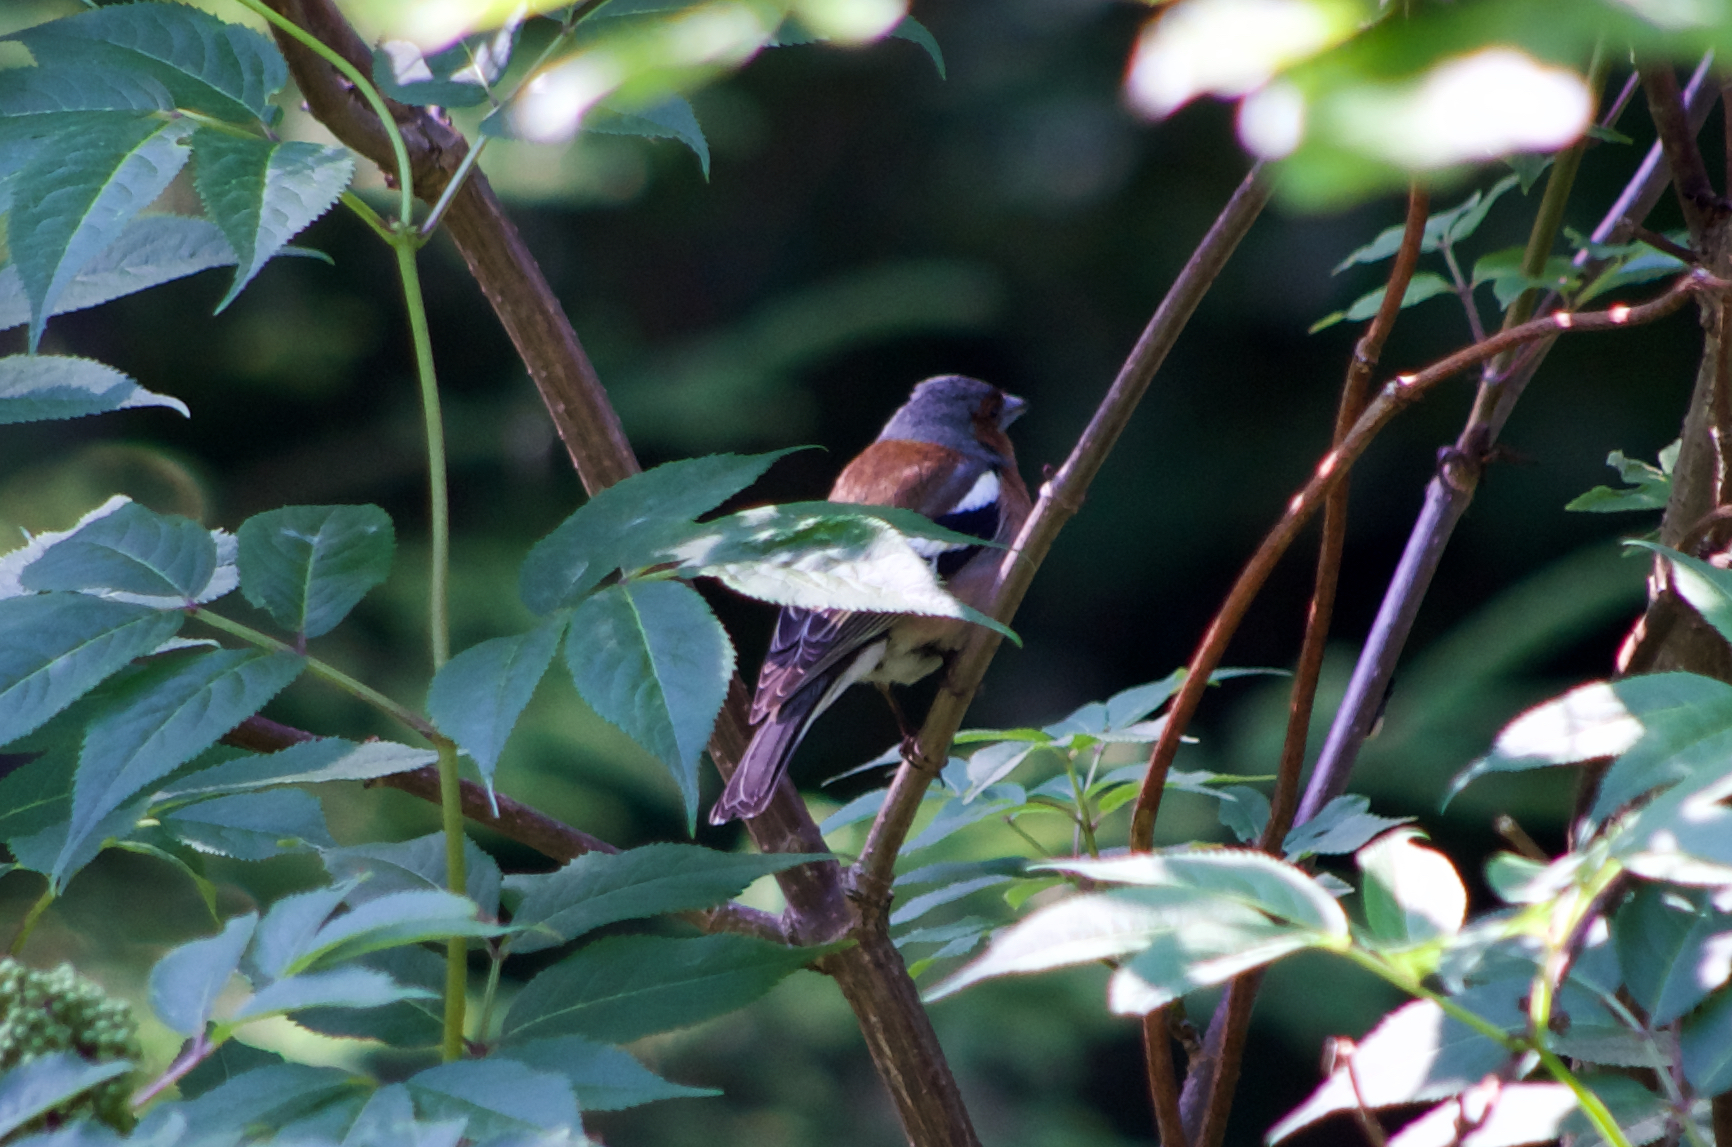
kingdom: Animalia
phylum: Chordata
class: Aves
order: Passeriformes
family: Fringillidae
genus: Fringilla
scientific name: Fringilla coelebs
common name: Common chaffinch
